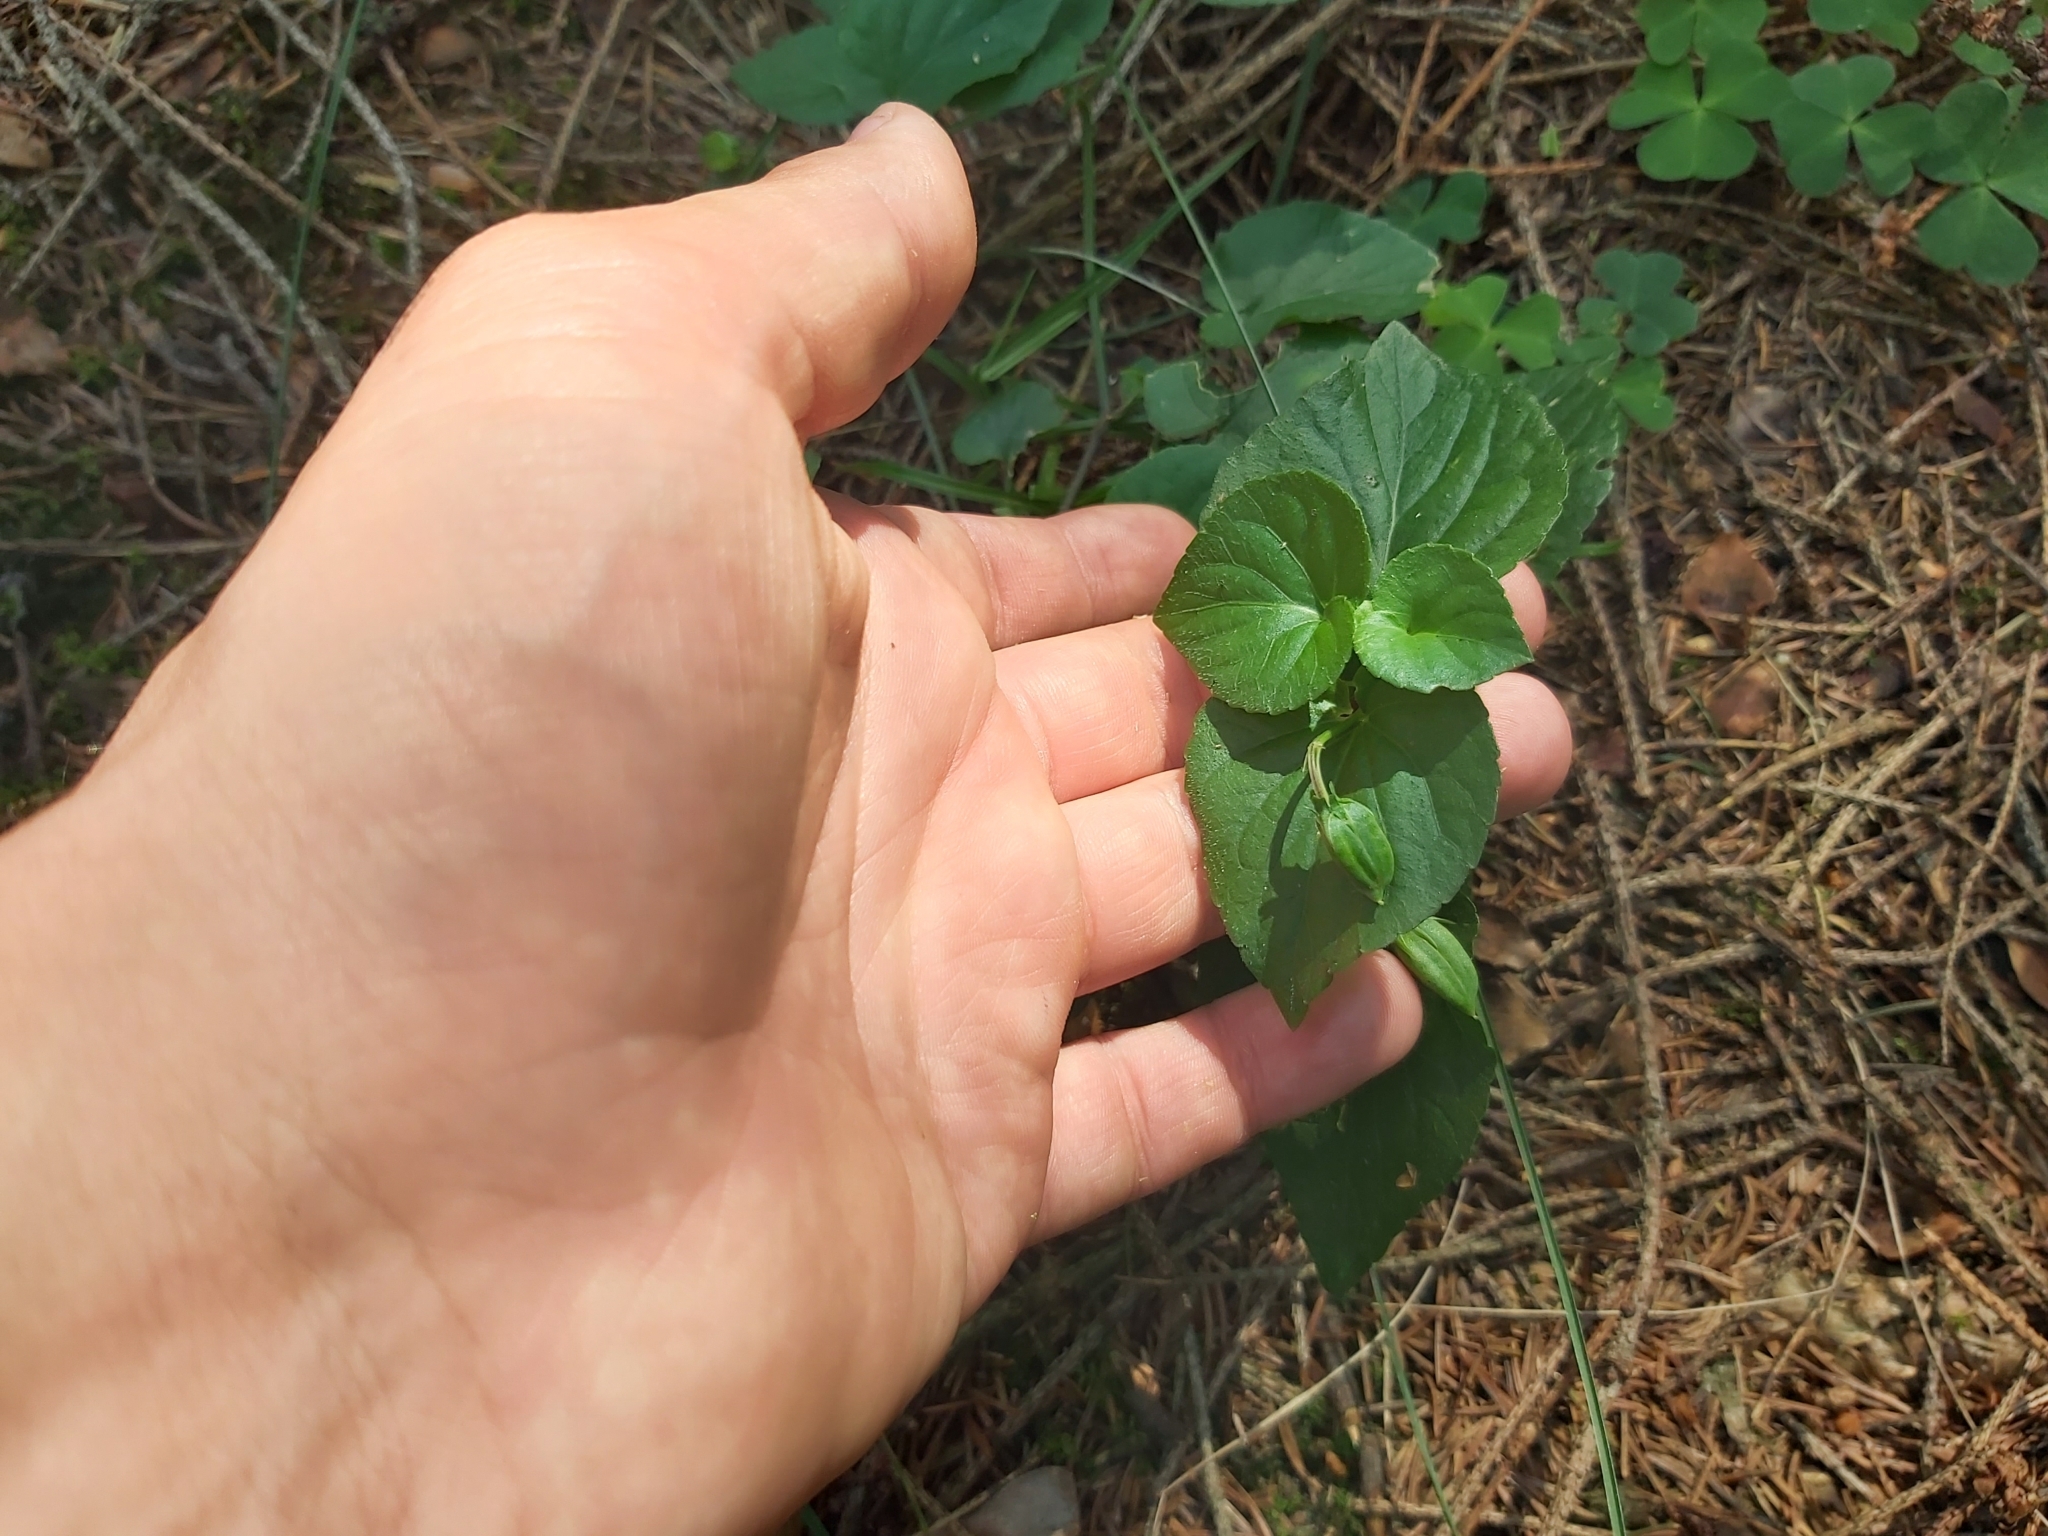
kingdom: Plantae
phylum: Tracheophyta
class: Magnoliopsida
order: Malpighiales
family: Violaceae
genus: Viola
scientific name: Viola mirabilis
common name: Wonder violet
